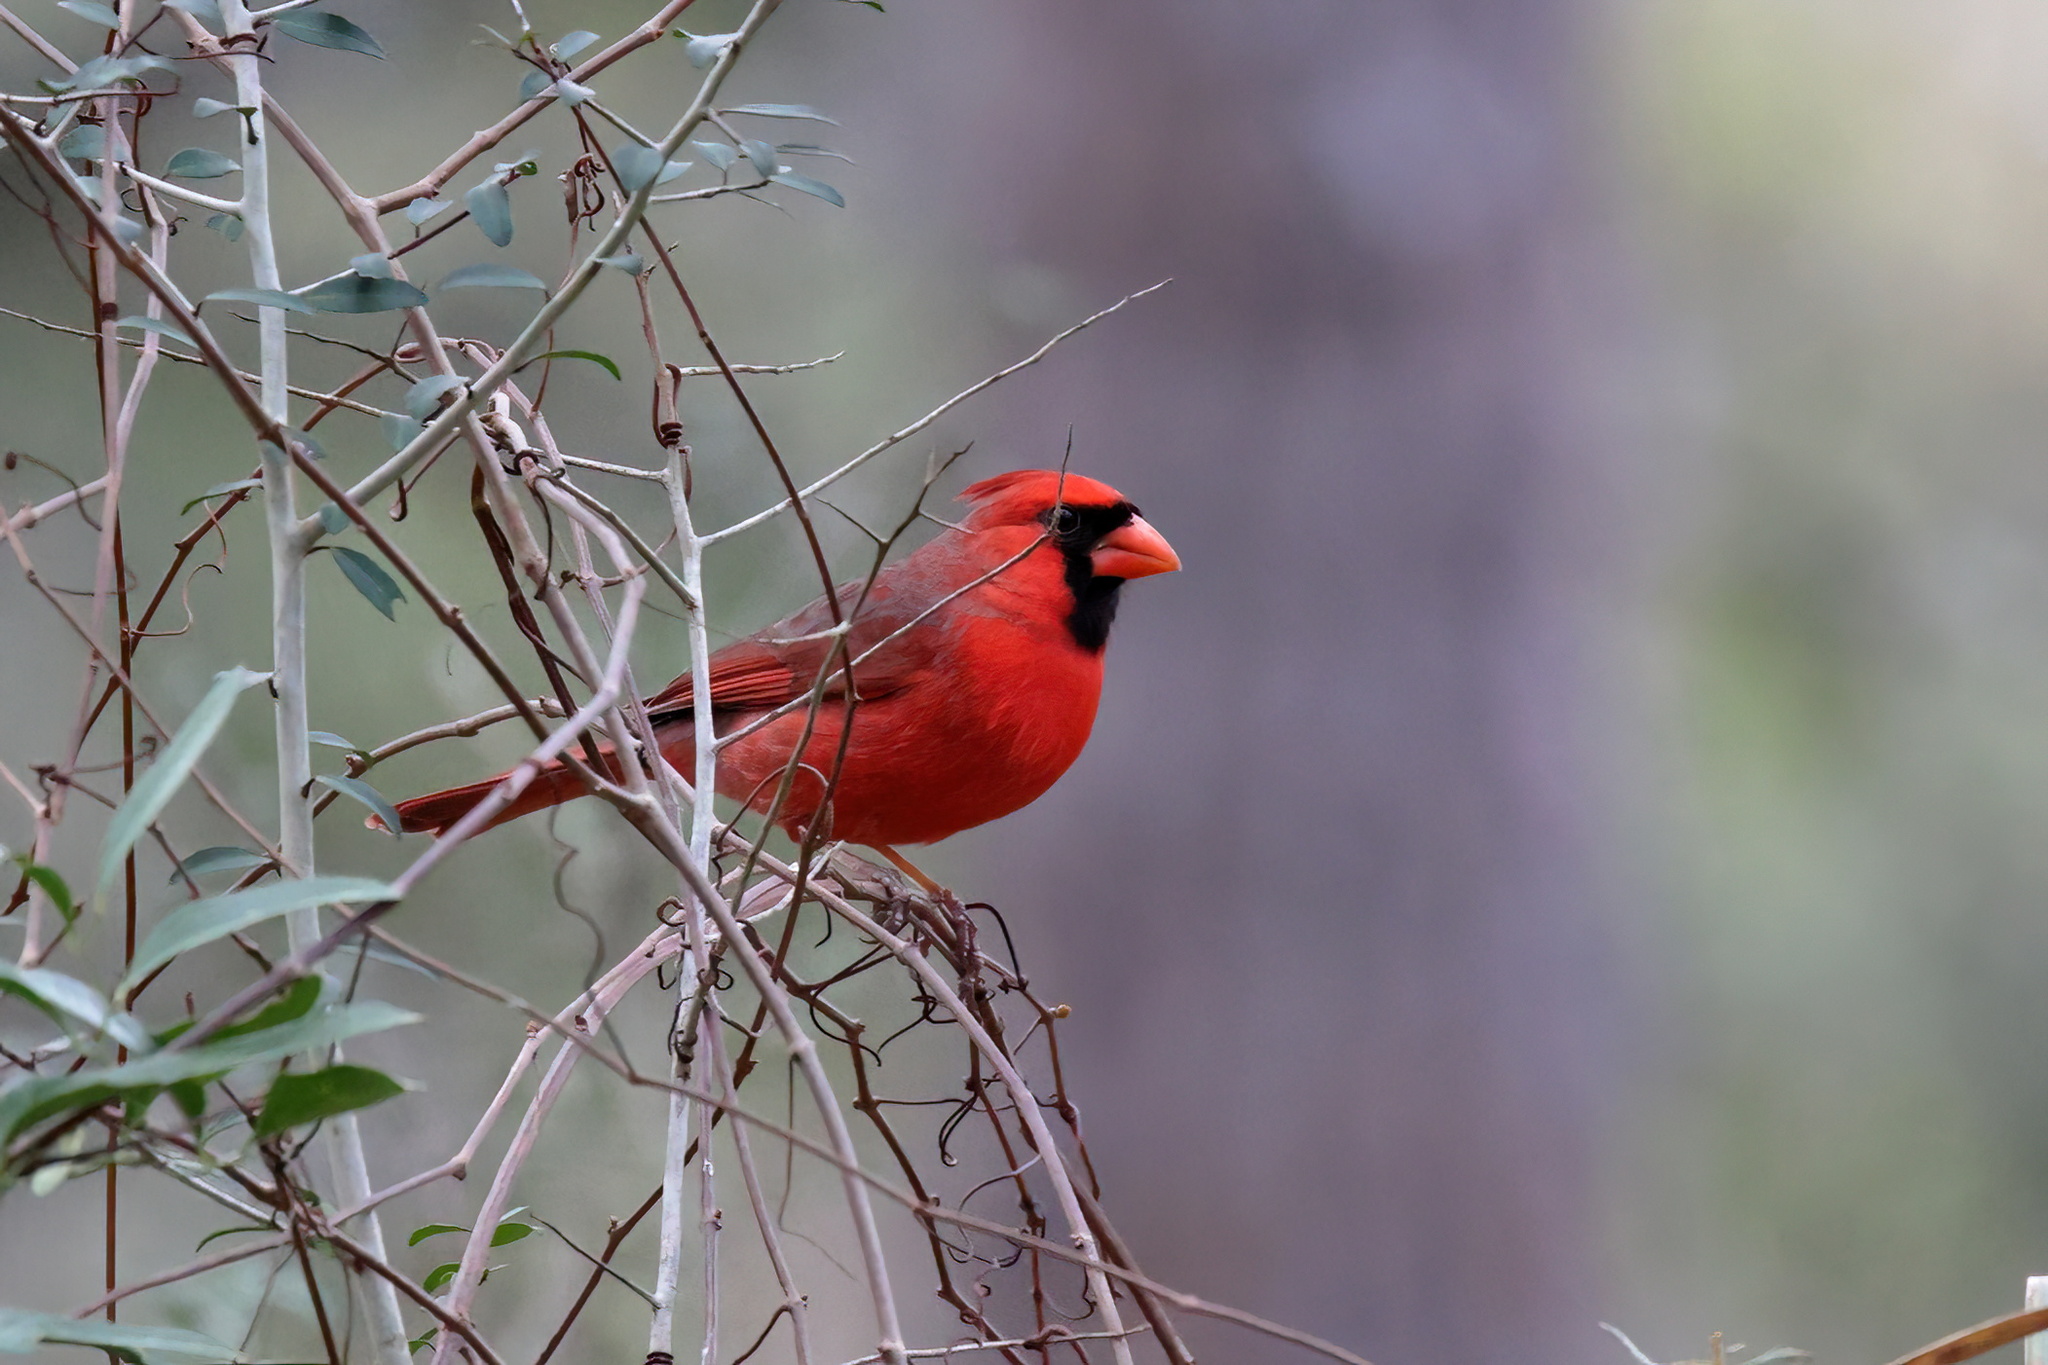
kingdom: Animalia
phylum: Chordata
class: Aves
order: Passeriformes
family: Cardinalidae
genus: Cardinalis
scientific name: Cardinalis cardinalis
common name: Northern cardinal
